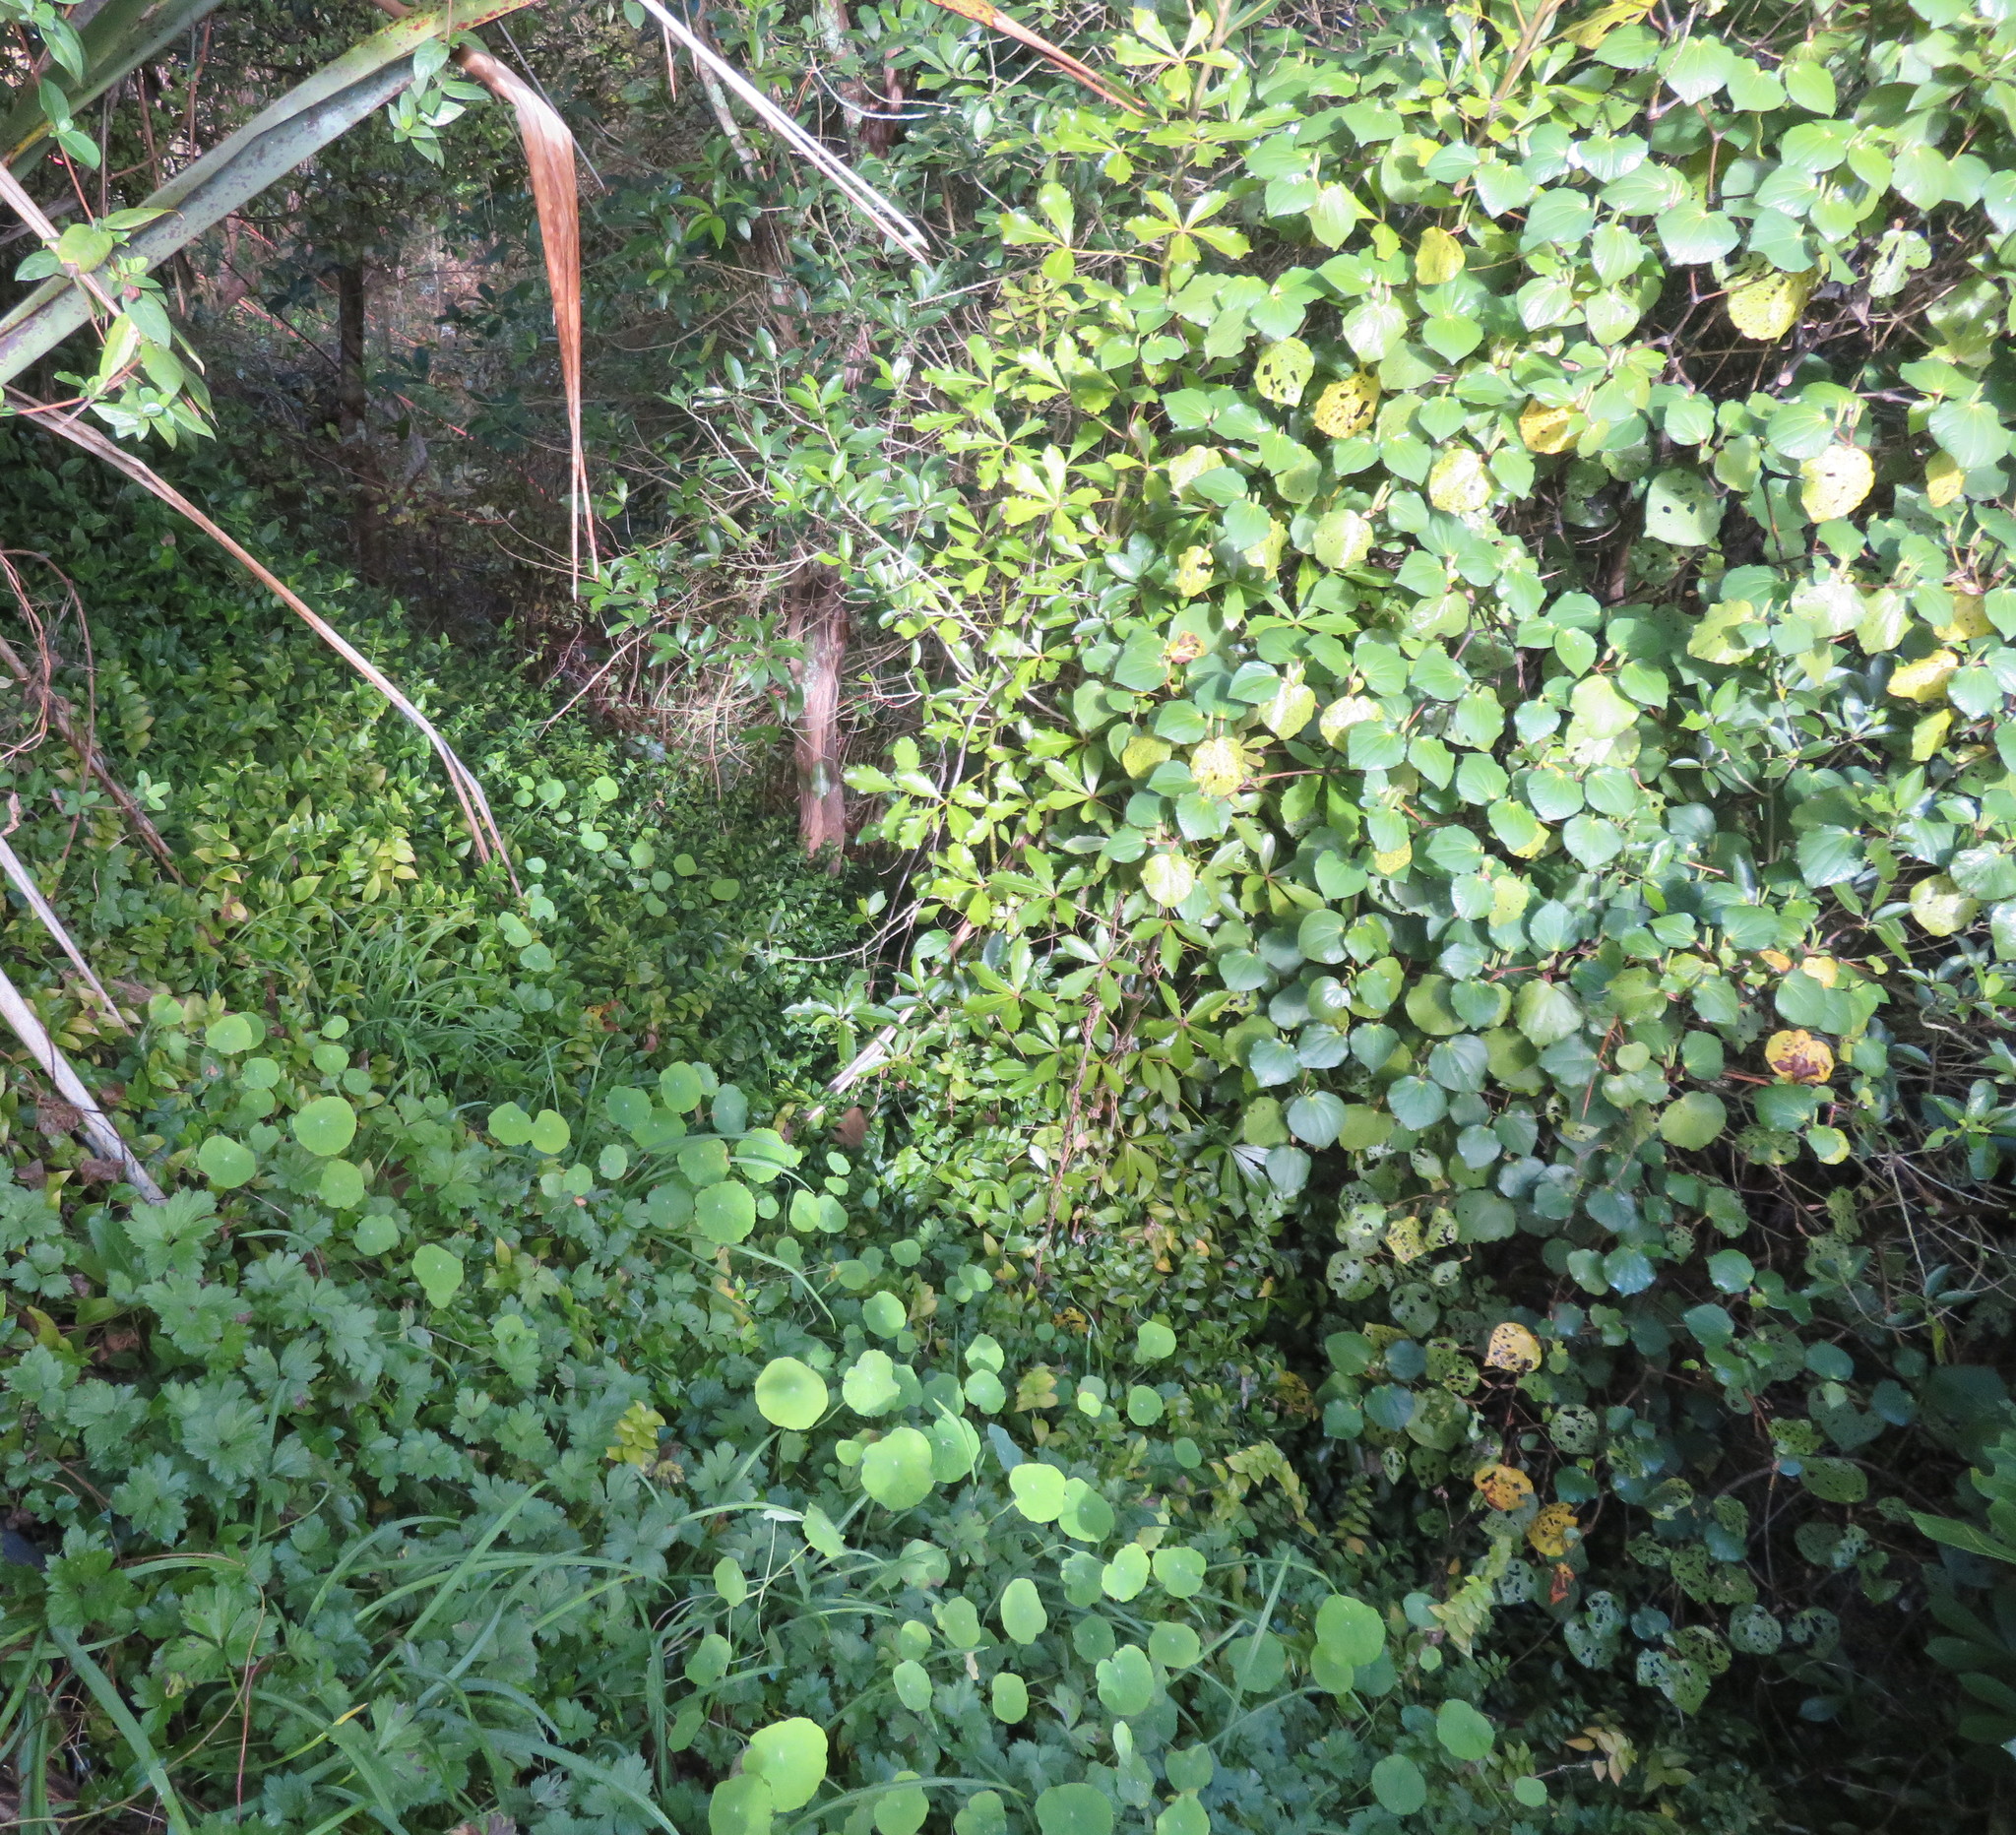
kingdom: Plantae
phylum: Tracheophyta
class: Magnoliopsida
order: Brassicales
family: Tropaeolaceae
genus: Tropaeolum
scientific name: Tropaeolum majus
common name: Nasturtium
